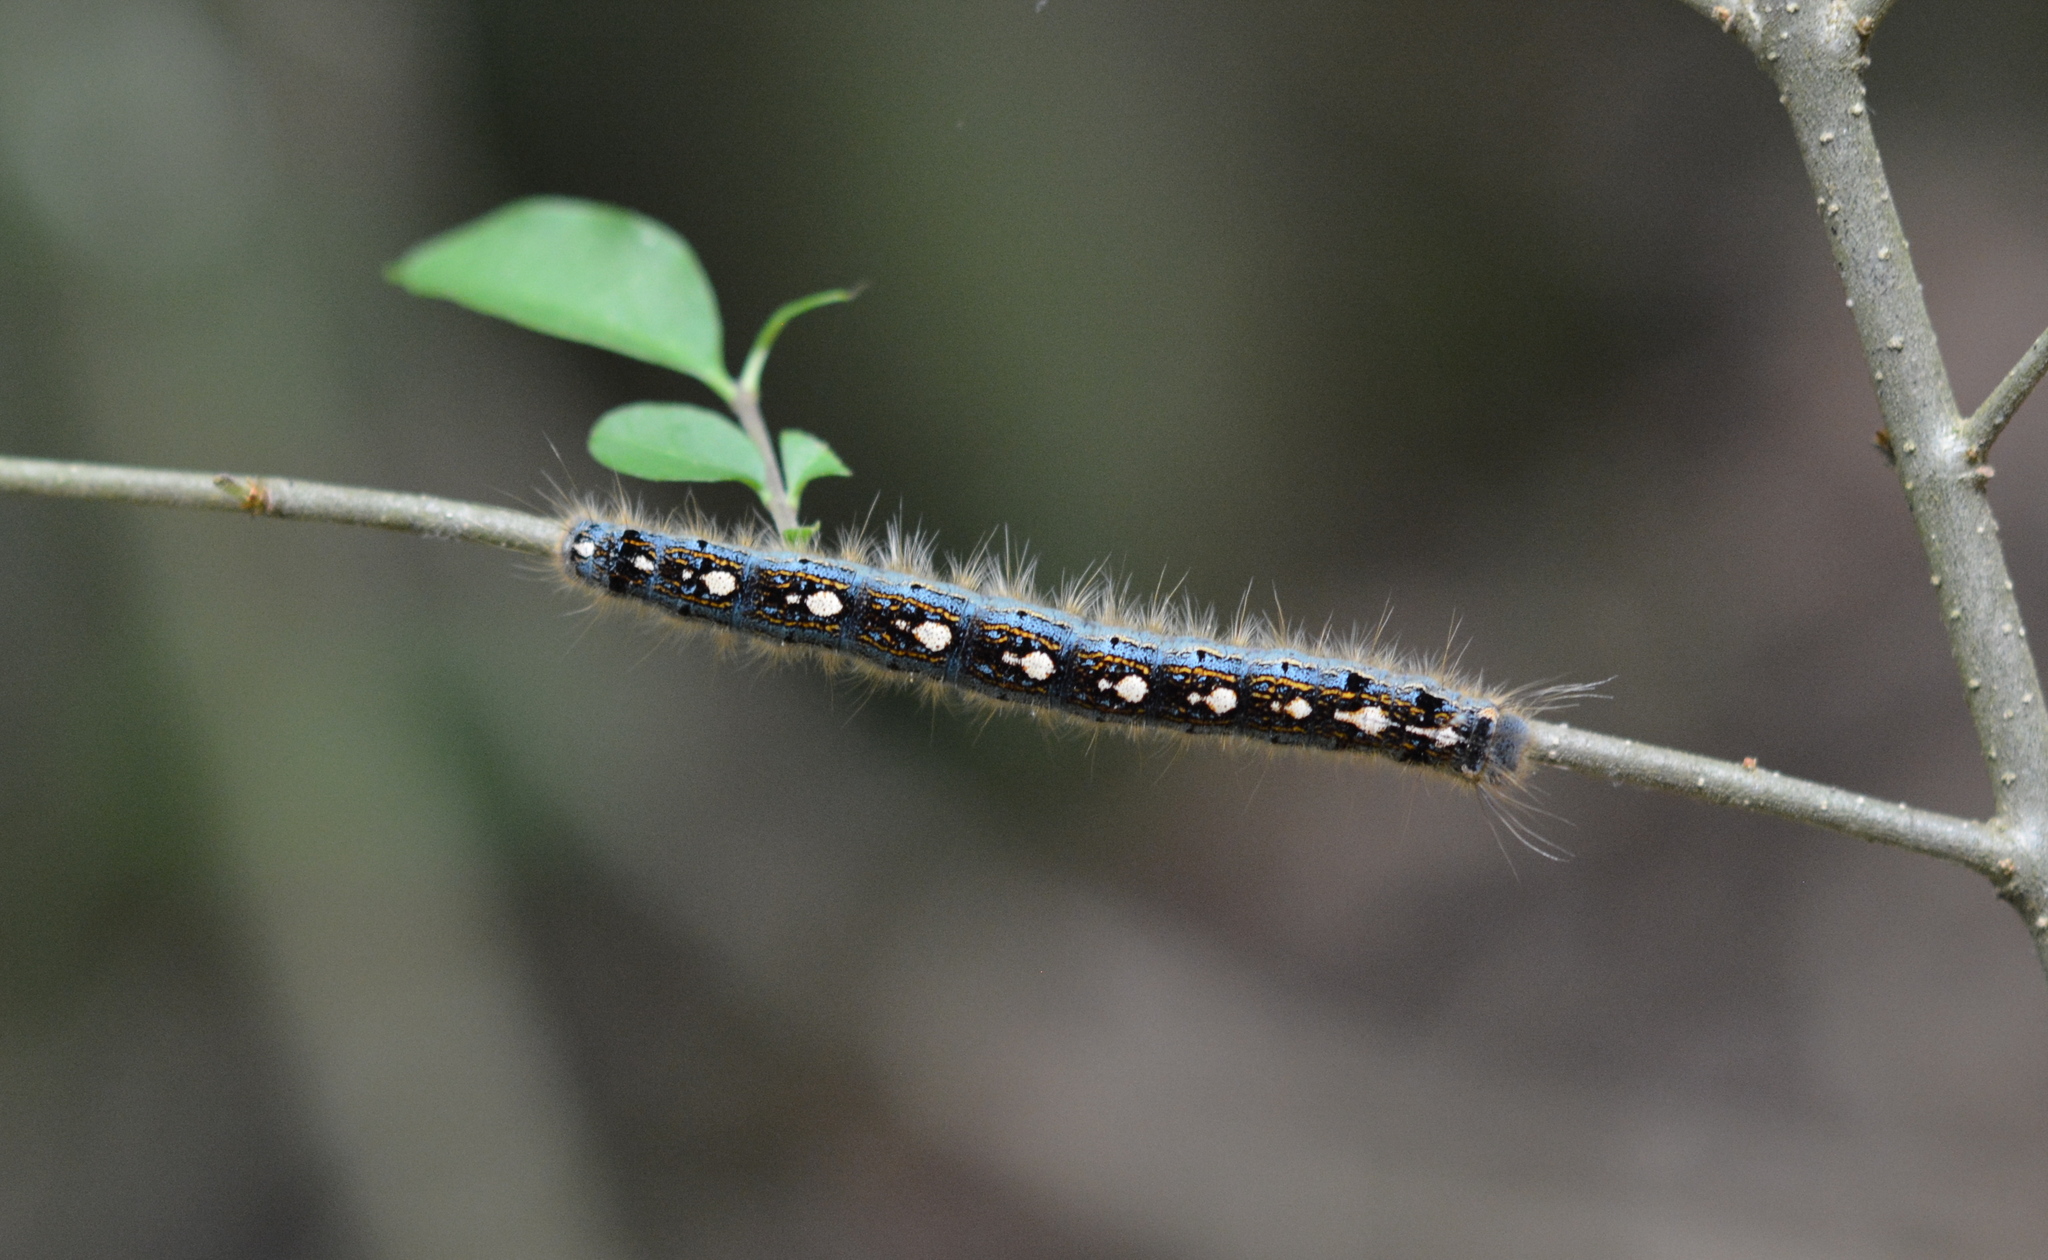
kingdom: Animalia
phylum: Arthropoda
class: Insecta
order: Lepidoptera
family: Lasiocampidae
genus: Malacosoma
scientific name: Malacosoma disstria
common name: Forest tent caterpillar
